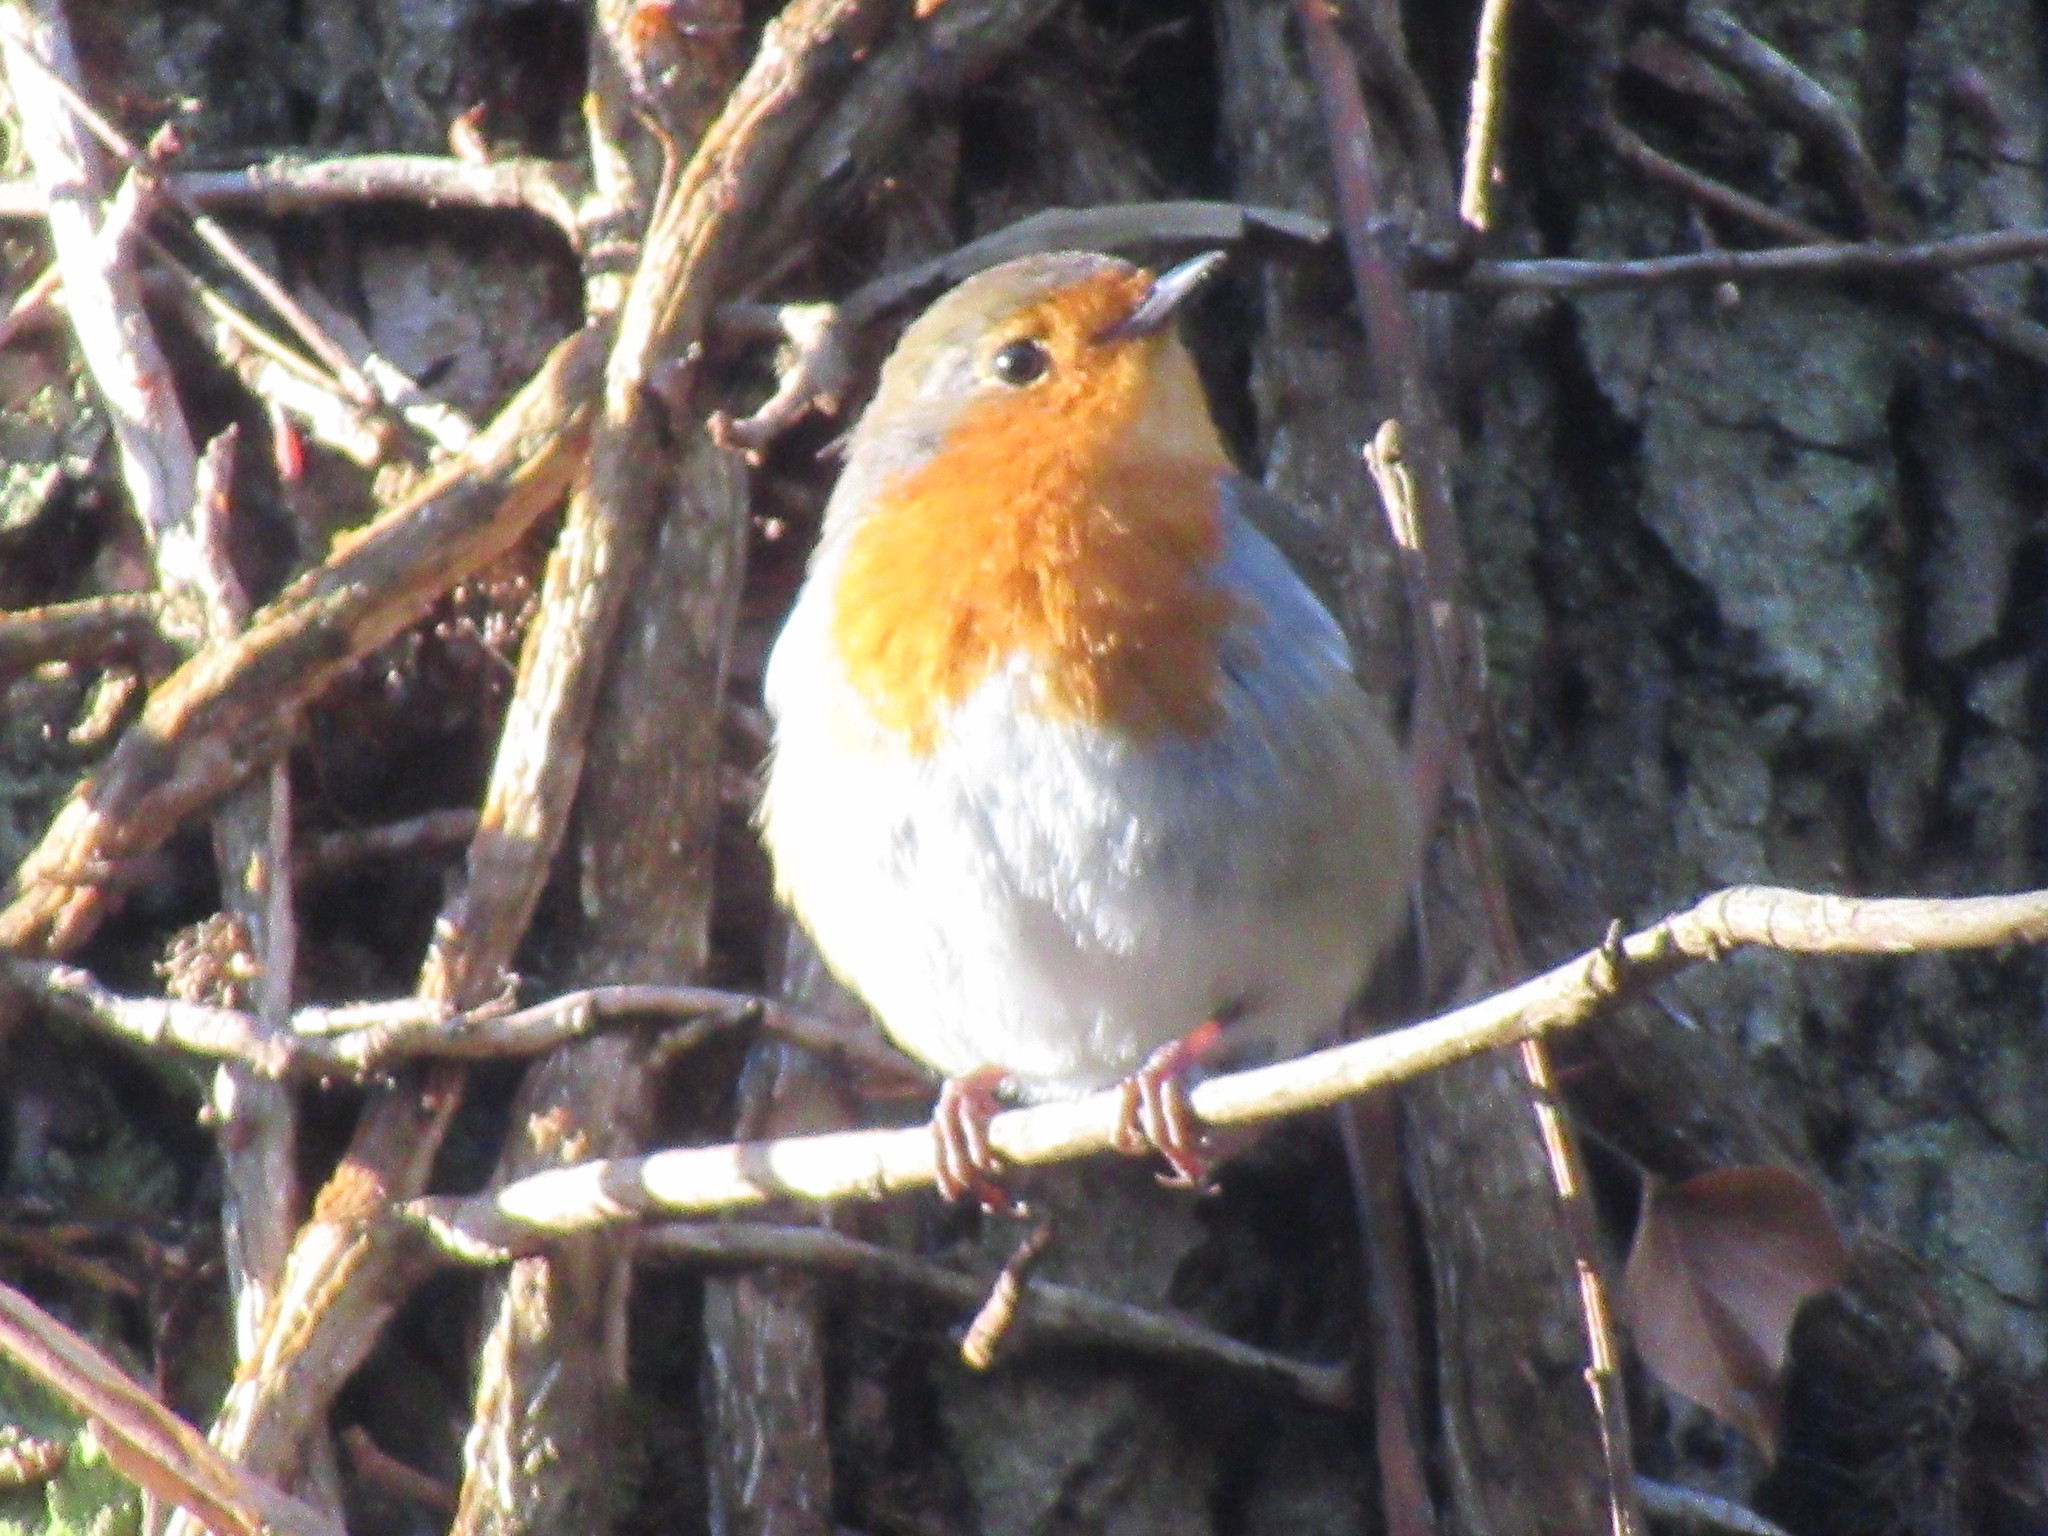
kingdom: Animalia
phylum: Chordata
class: Aves
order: Passeriformes
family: Muscicapidae
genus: Erithacus
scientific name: Erithacus rubecula
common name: European robin
